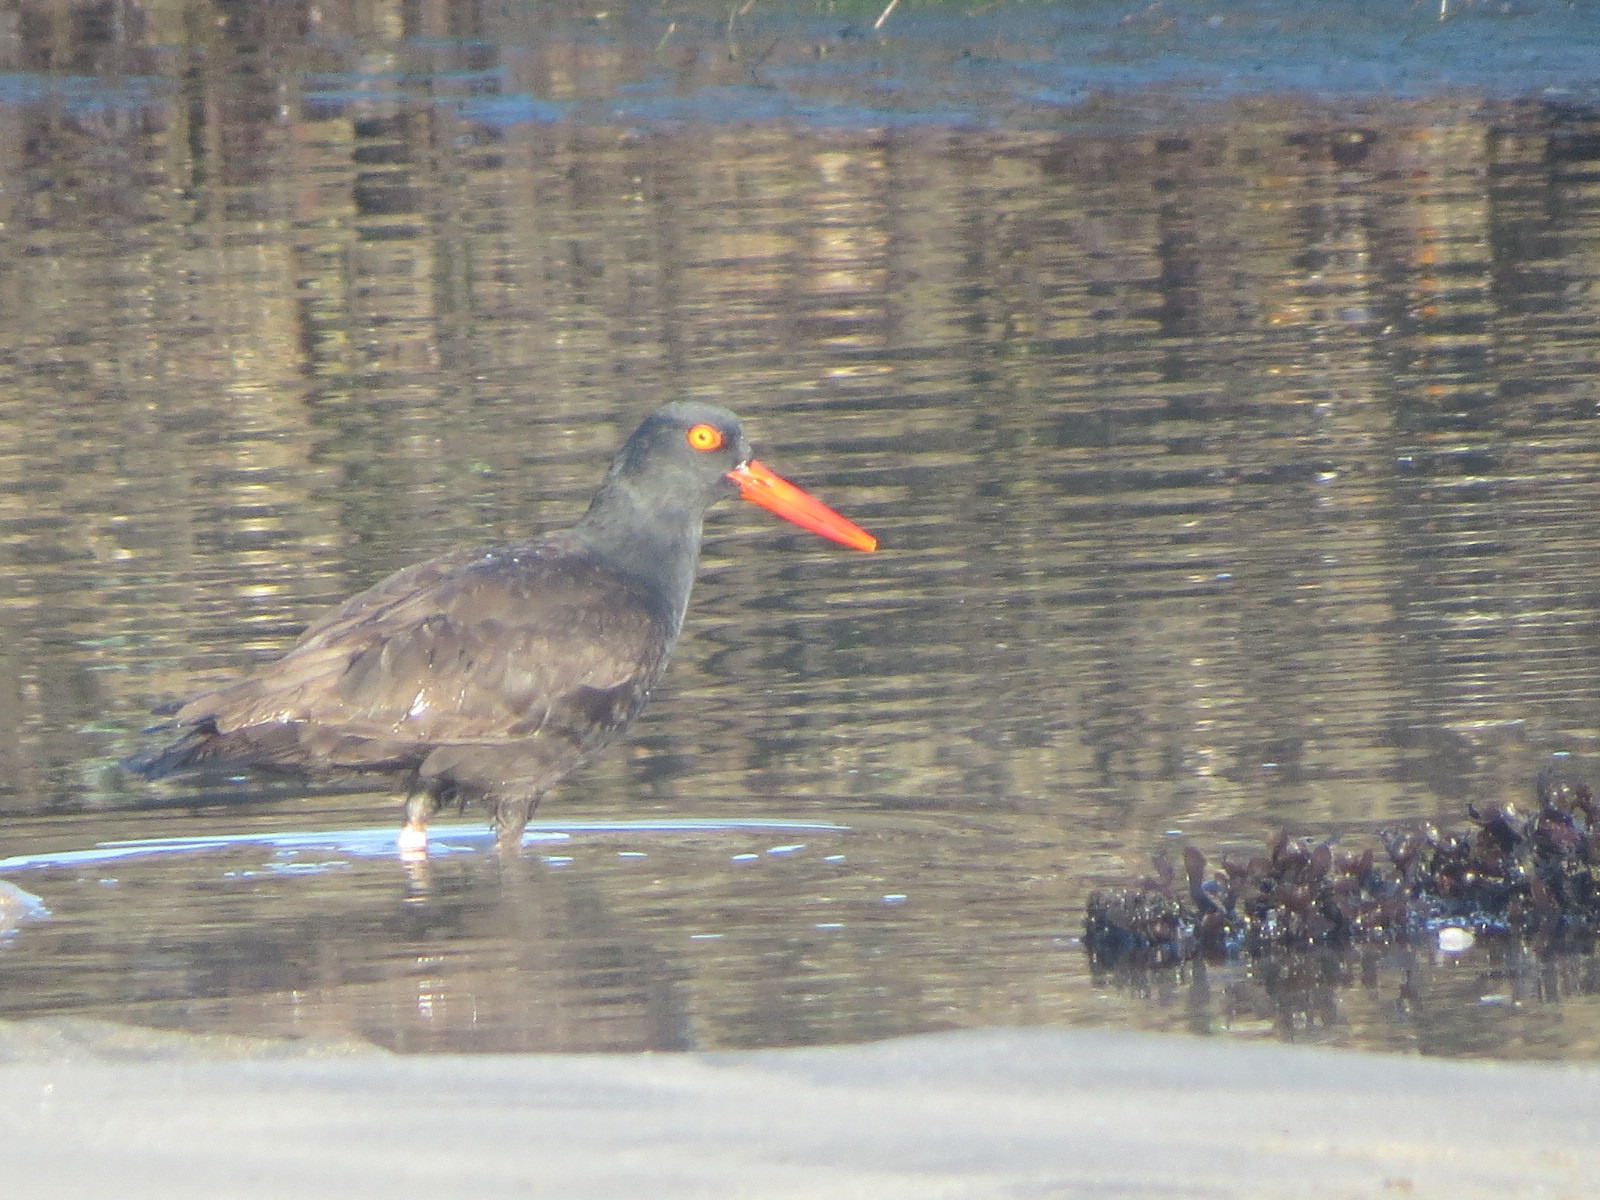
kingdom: Animalia
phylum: Chordata
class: Aves
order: Charadriiformes
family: Haematopodidae
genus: Haematopus
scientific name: Haematopus bachmani
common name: Black oystercatcher
